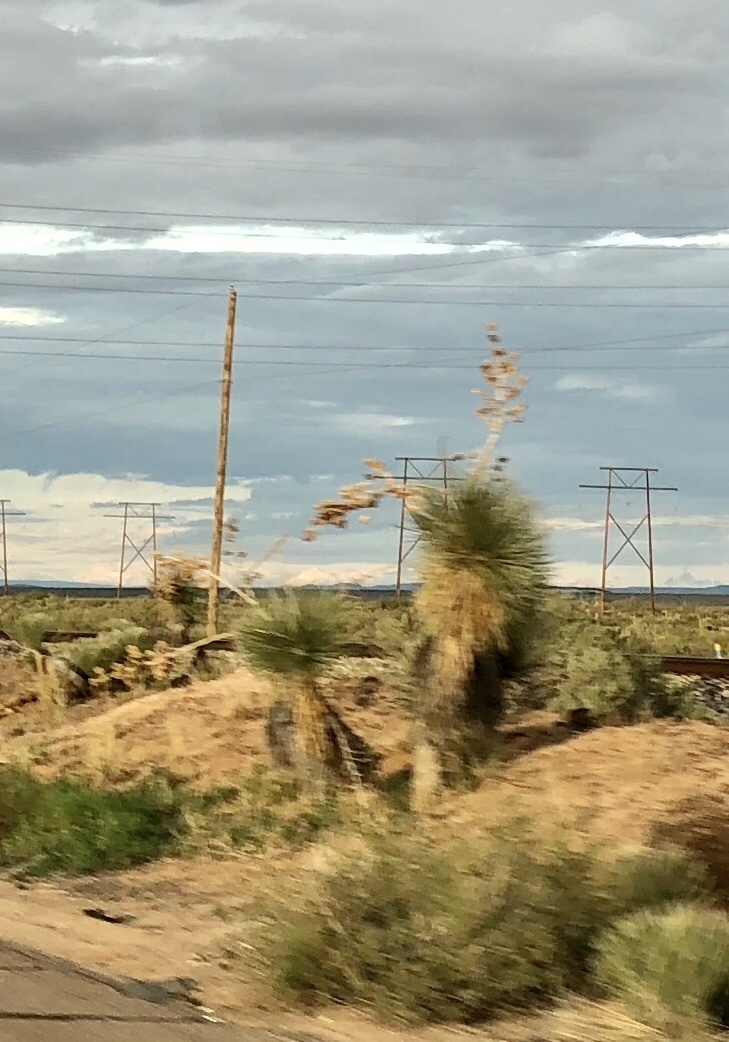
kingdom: Plantae
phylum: Tracheophyta
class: Liliopsida
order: Asparagales
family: Asparagaceae
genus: Yucca
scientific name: Yucca elata
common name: Palmella
